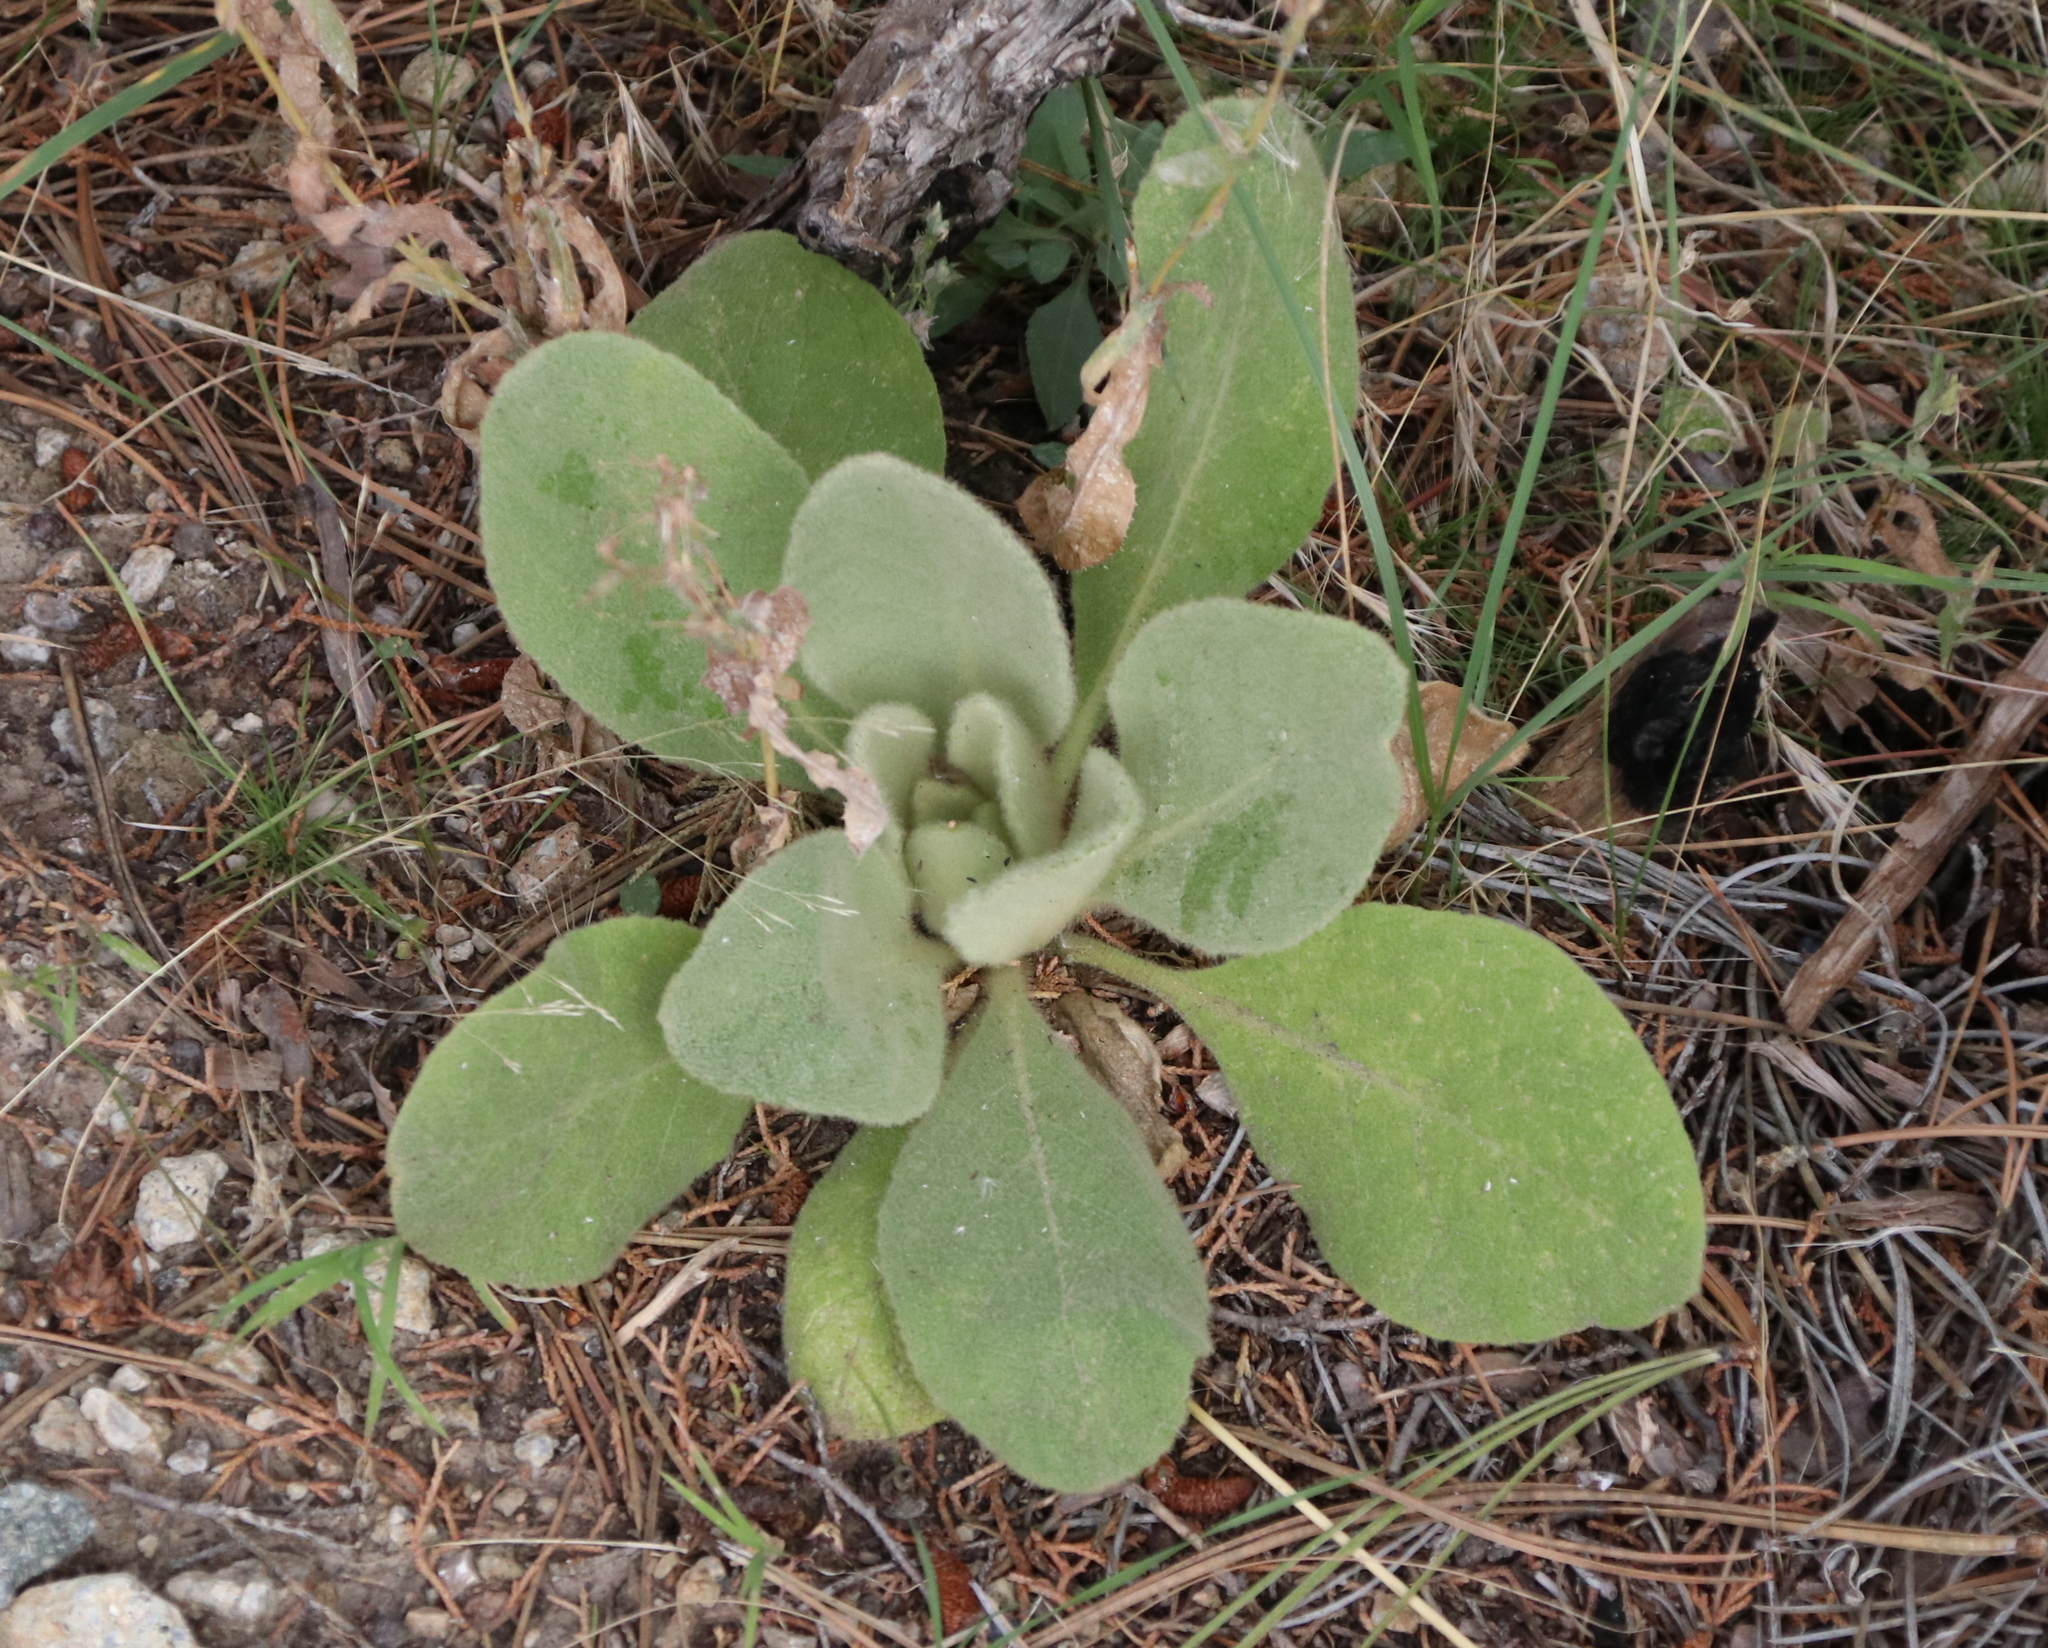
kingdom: Plantae
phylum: Tracheophyta
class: Magnoliopsida
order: Lamiales
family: Scrophulariaceae
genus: Verbascum
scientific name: Verbascum thapsus
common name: Common mullein
